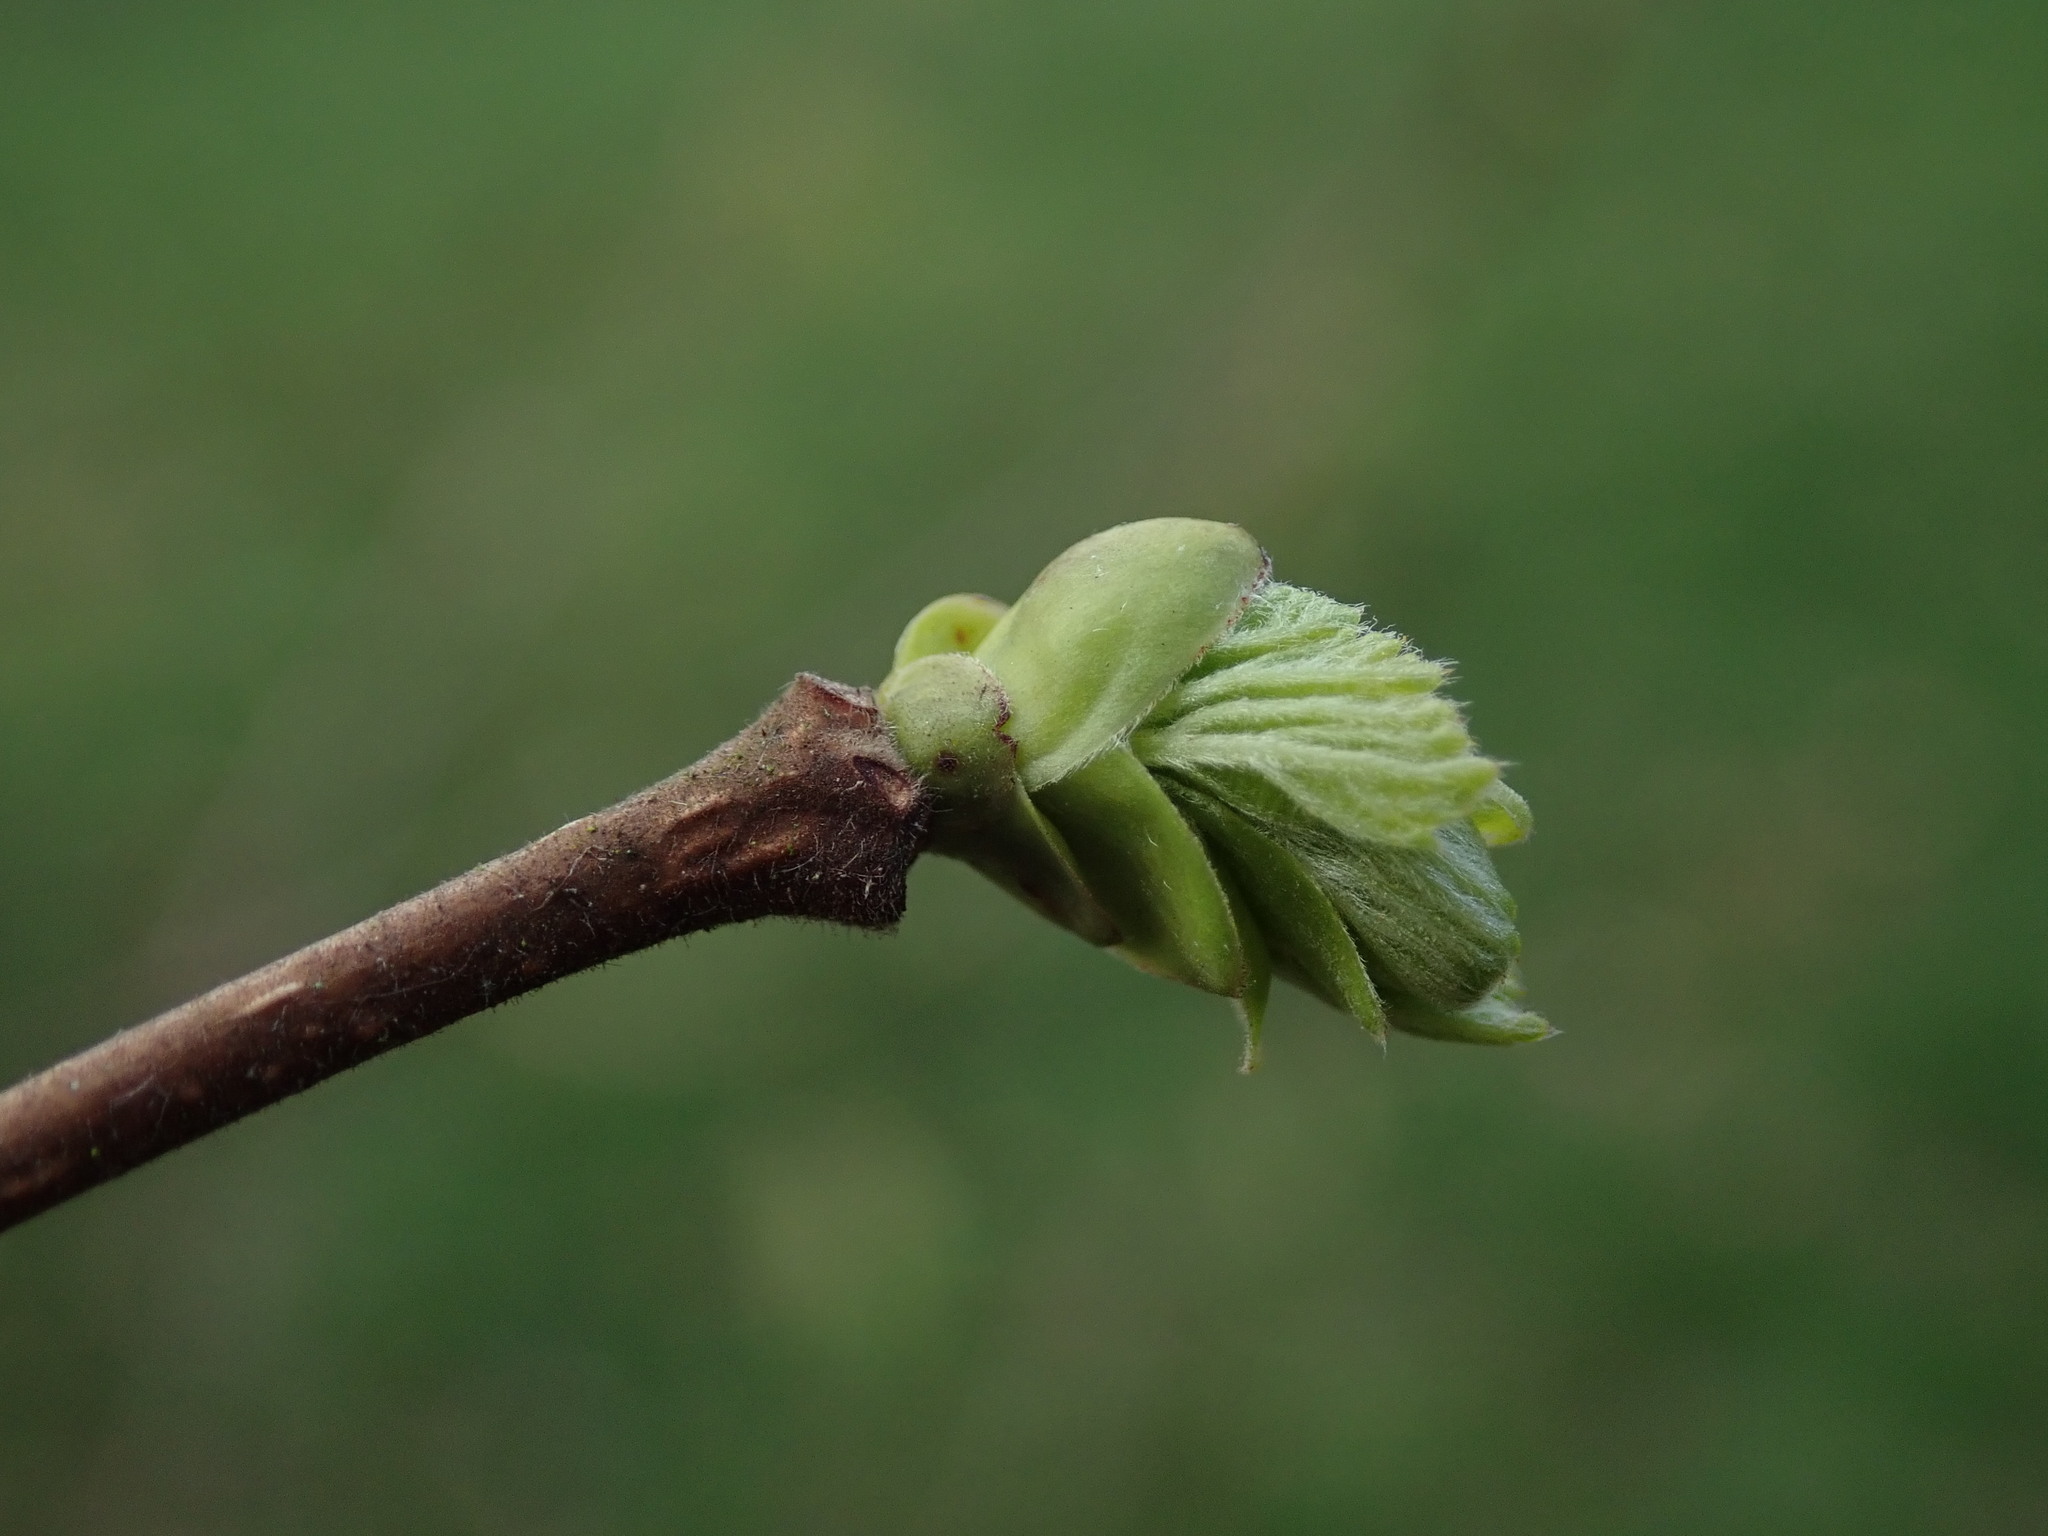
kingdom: Plantae
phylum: Tracheophyta
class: Magnoliopsida
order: Fagales
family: Betulaceae
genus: Corylus
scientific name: Corylus avellana
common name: European hazel
